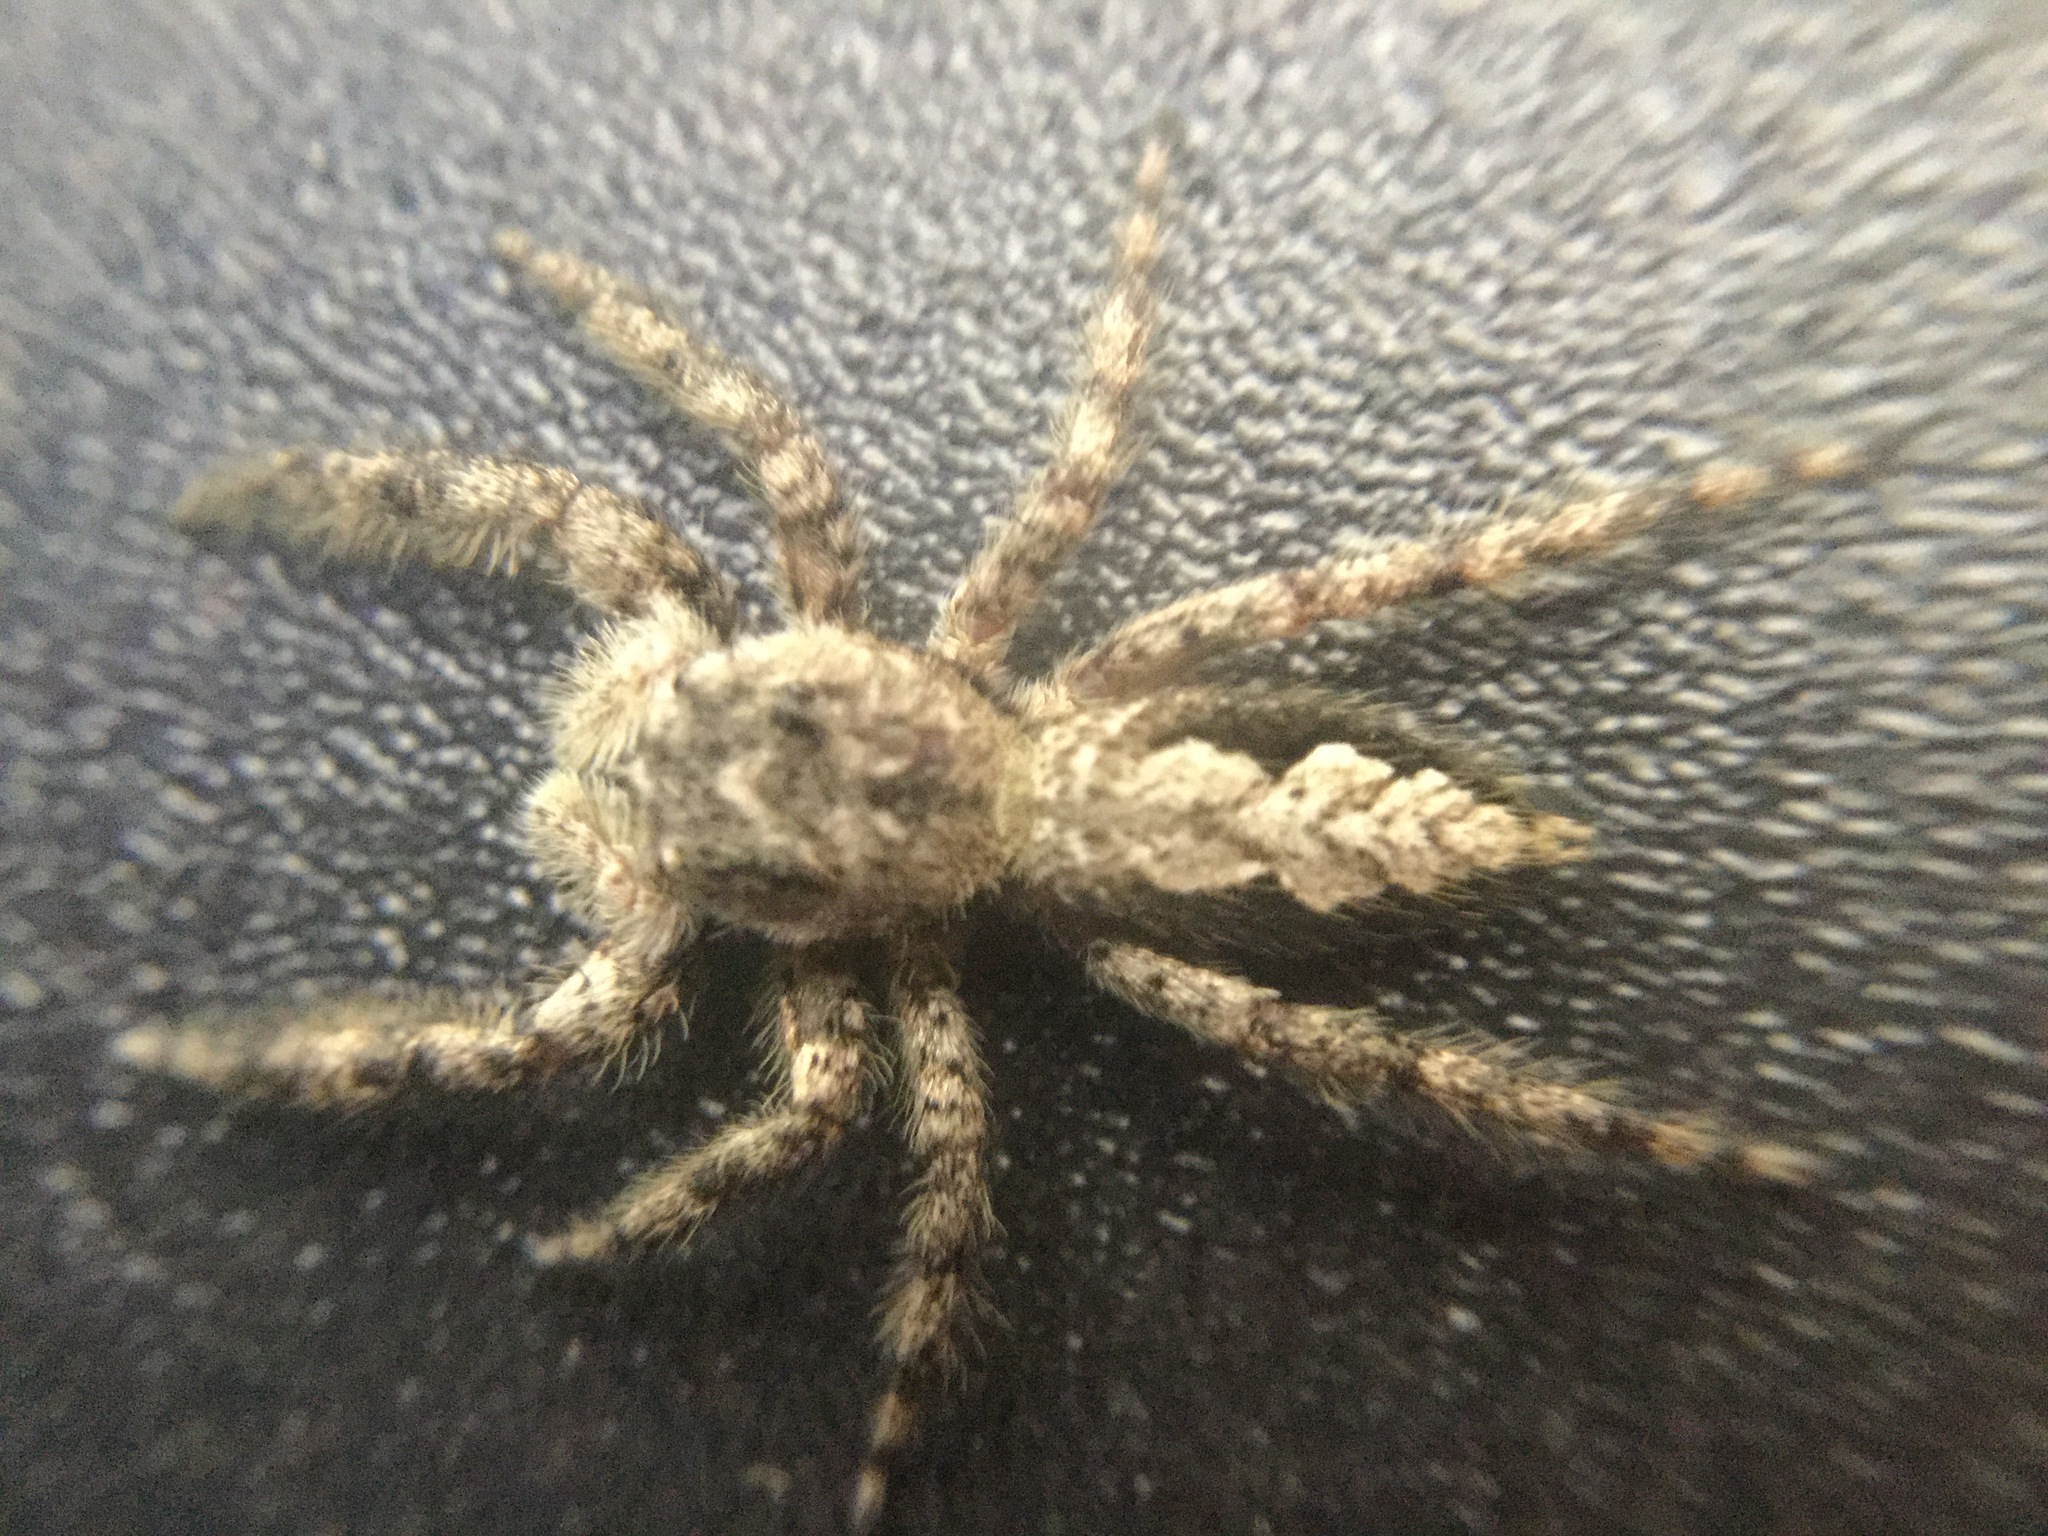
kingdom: Animalia
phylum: Arthropoda
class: Arachnida
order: Araneae
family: Salticidae
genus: Platycryptus
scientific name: Platycryptus undatus
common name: Tan jumping spider
